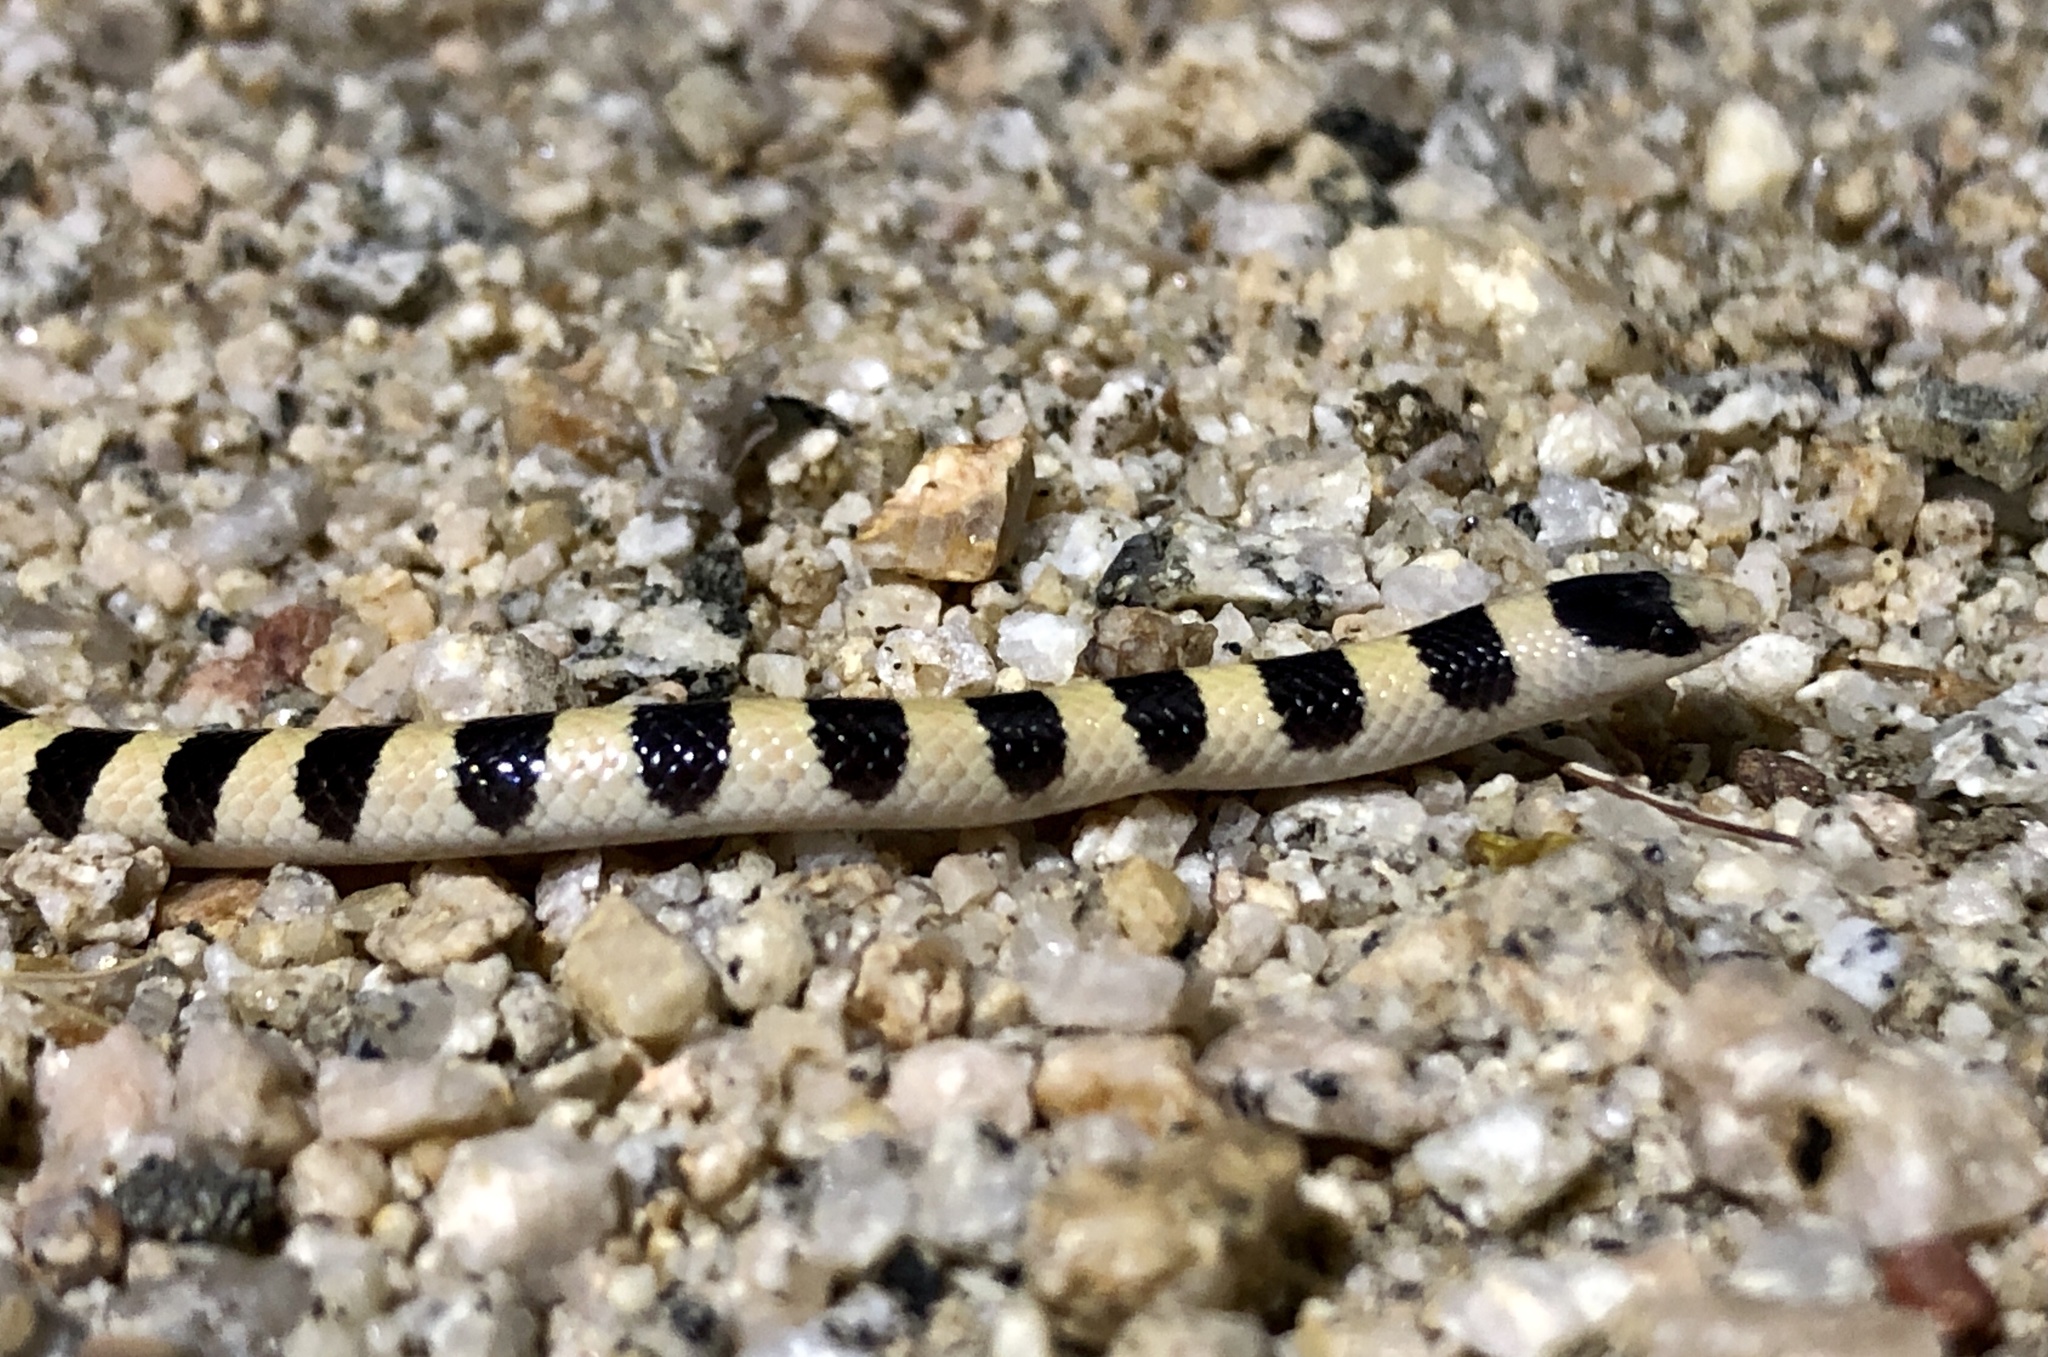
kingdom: Animalia
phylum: Chordata
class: Squamata
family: Colubridae
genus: Sonora
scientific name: Sonora occipitalis
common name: Western shovelnose snake
